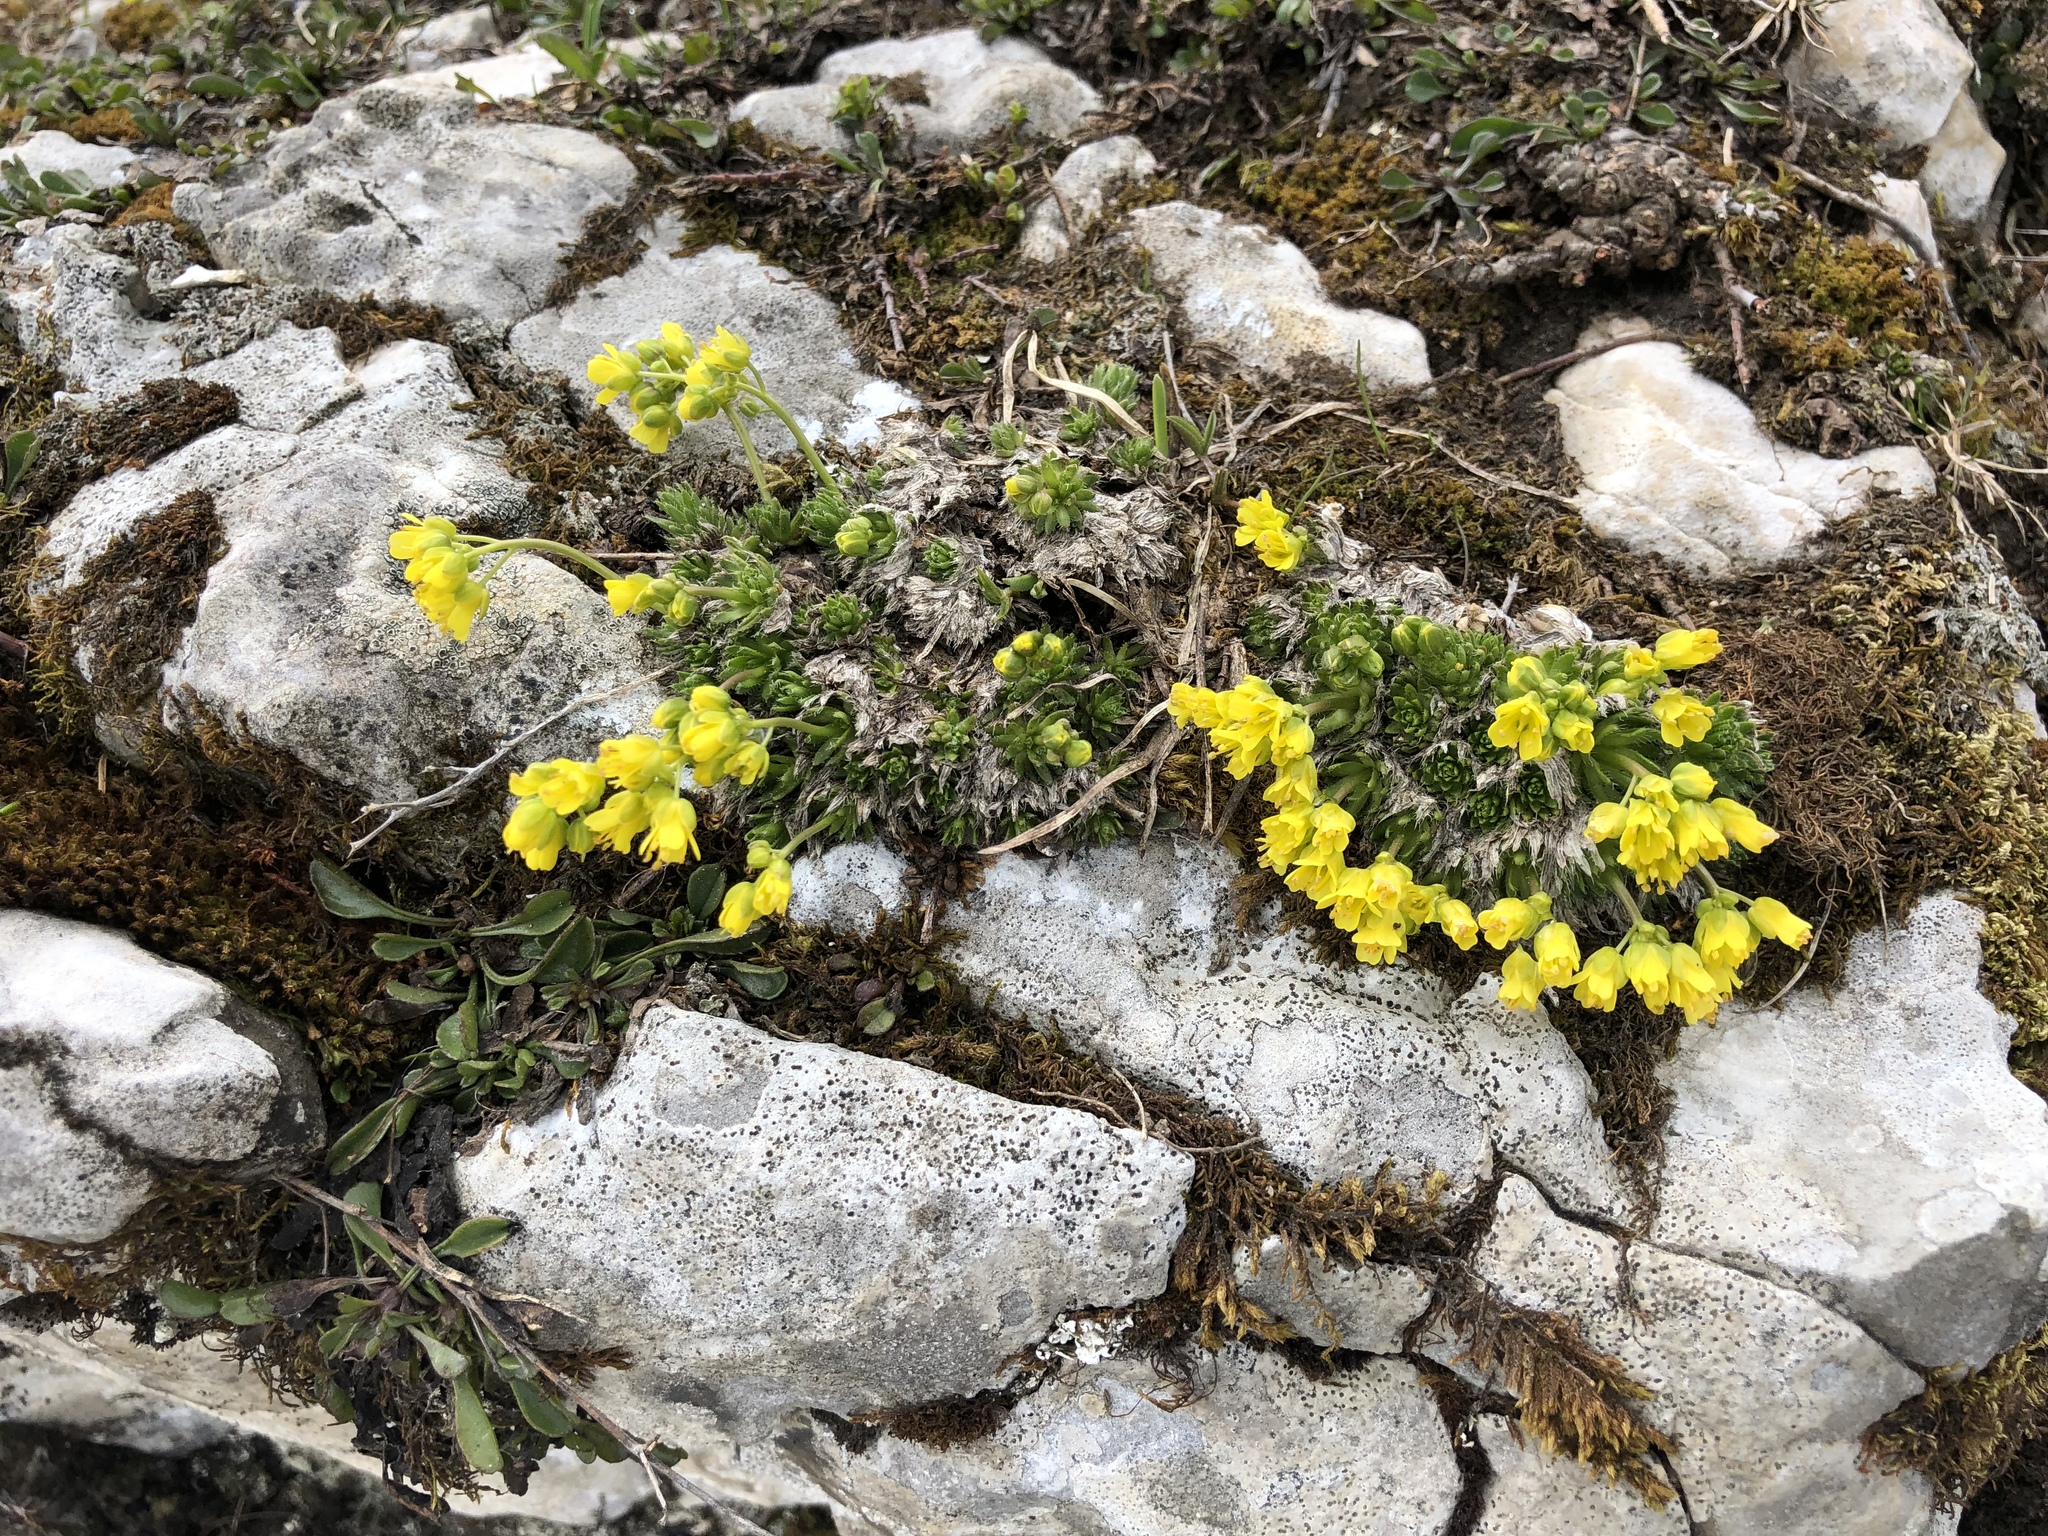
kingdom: Plantae
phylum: Tracheophyta
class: Magnoliopsida
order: Brassicales
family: Brassicaceae
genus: Draba
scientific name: Draba aizoides
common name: Yellow whitlowgrass
